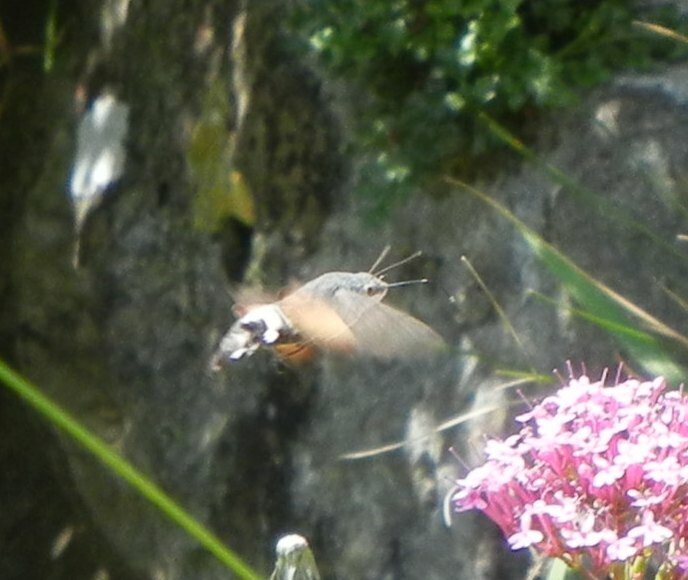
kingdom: Animalia
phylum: Arthropoda
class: Insecta
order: Lepidoptera
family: Sphingidae
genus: Macroglossum
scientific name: Macroglossum stellatarum
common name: Humming-bird hawk-moth
